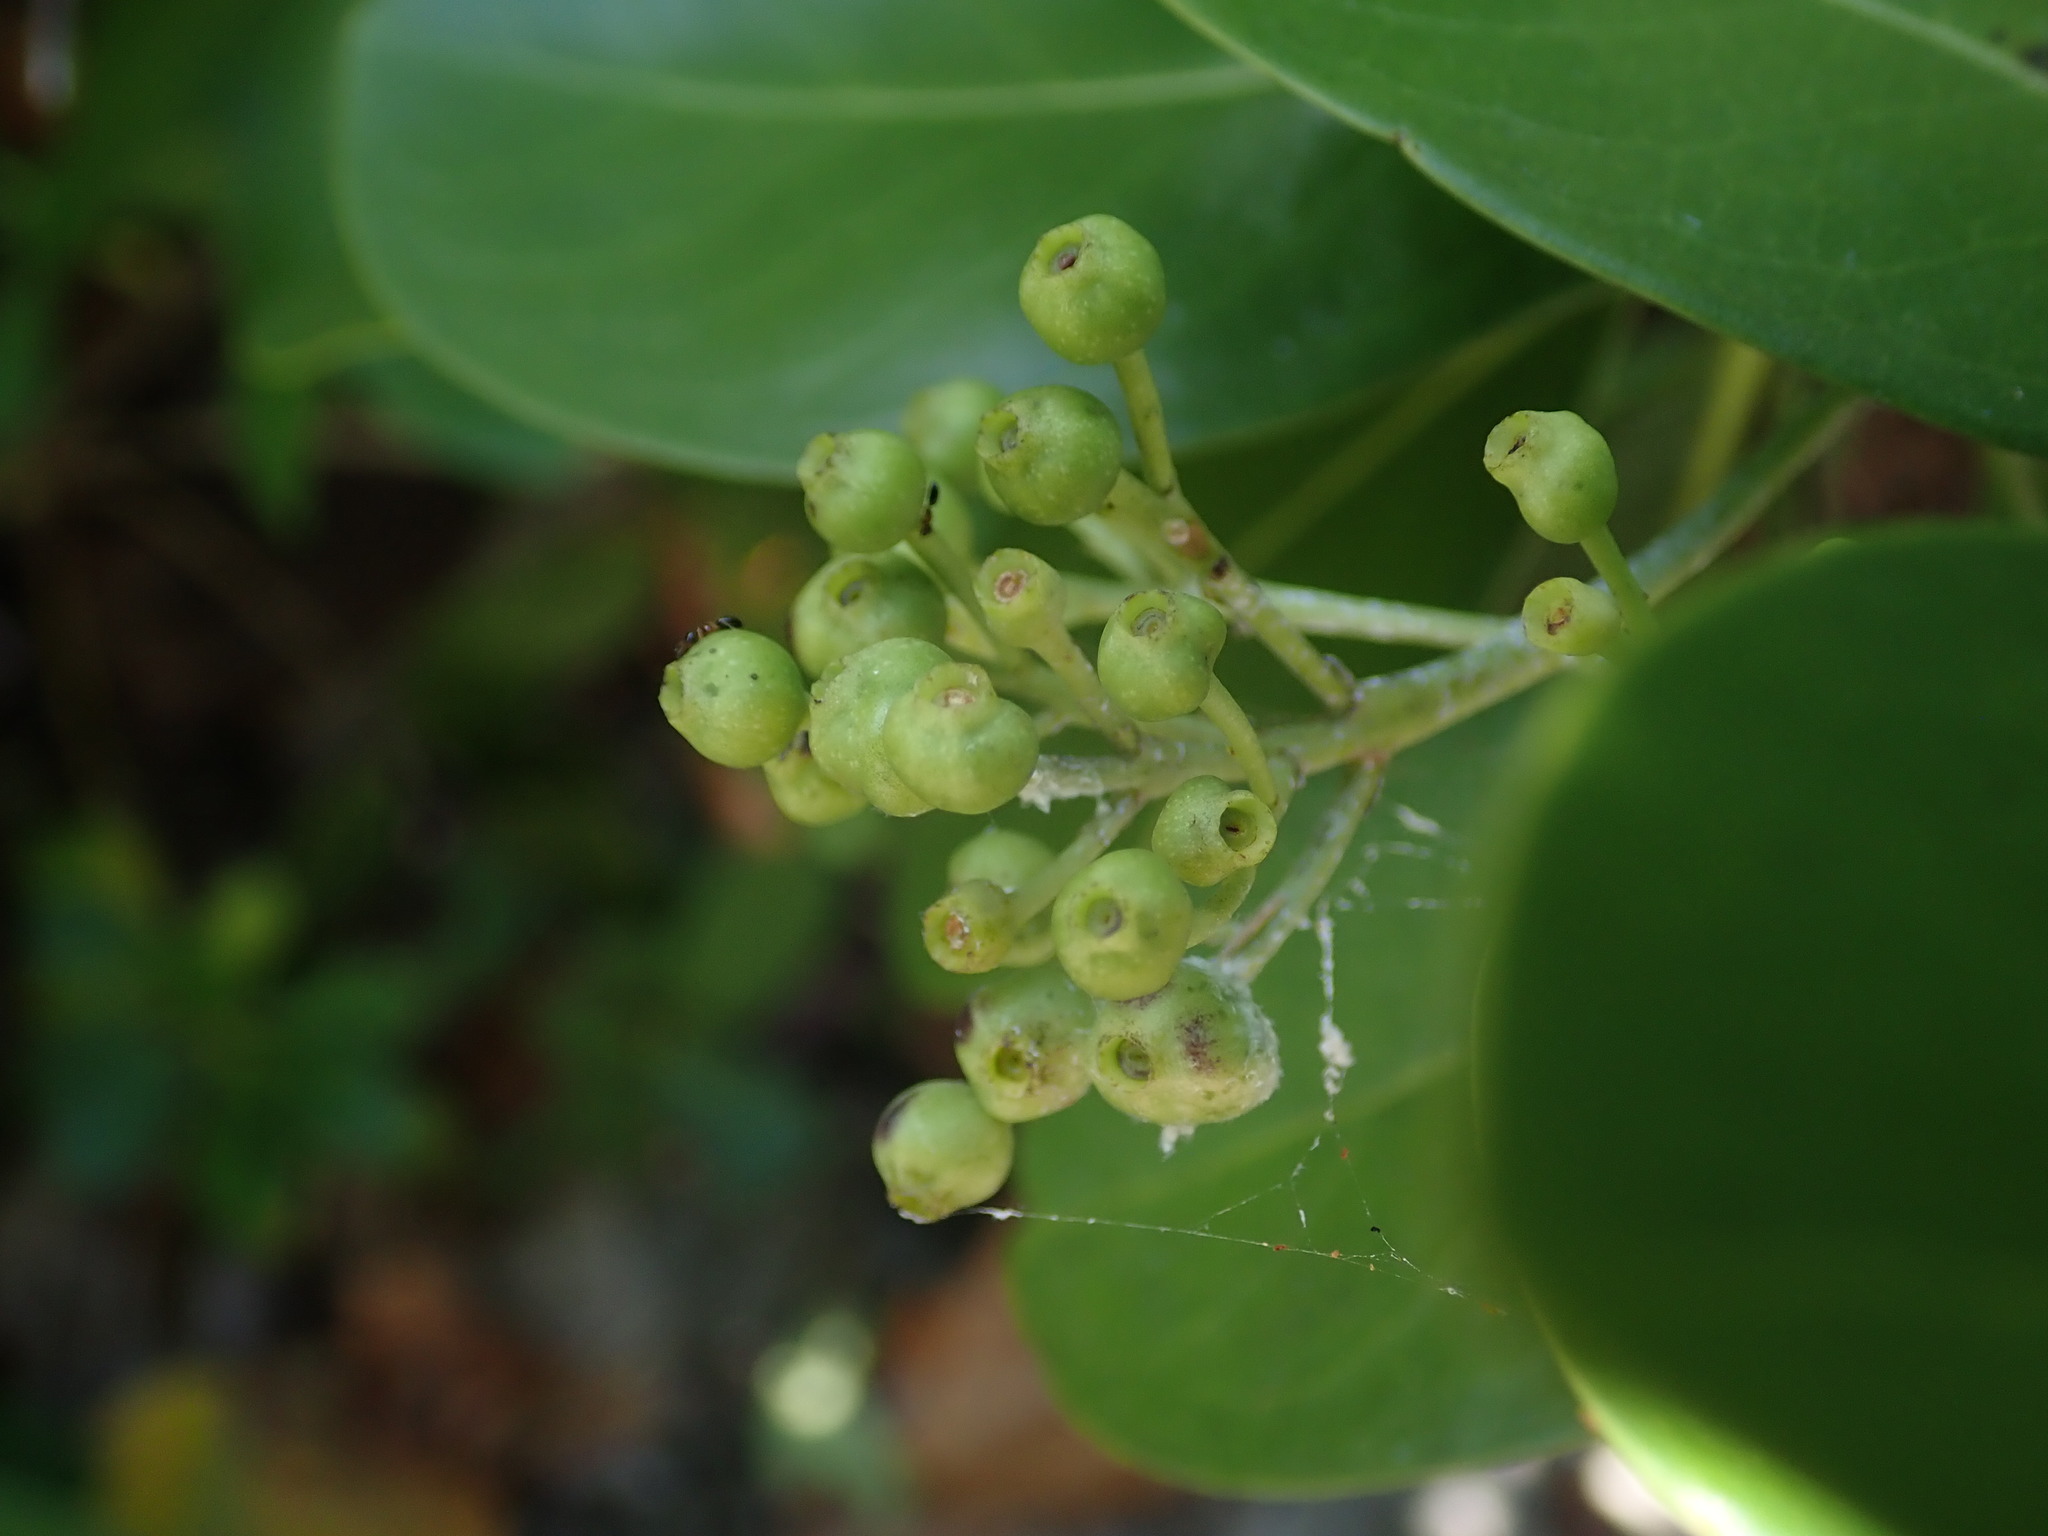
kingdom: Plantae
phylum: Tracheophyta
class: Magnoliopsida
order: Gentianales
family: Rubiaceae
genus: Erithalis
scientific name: Erithalis fruticosa
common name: Candlewood
